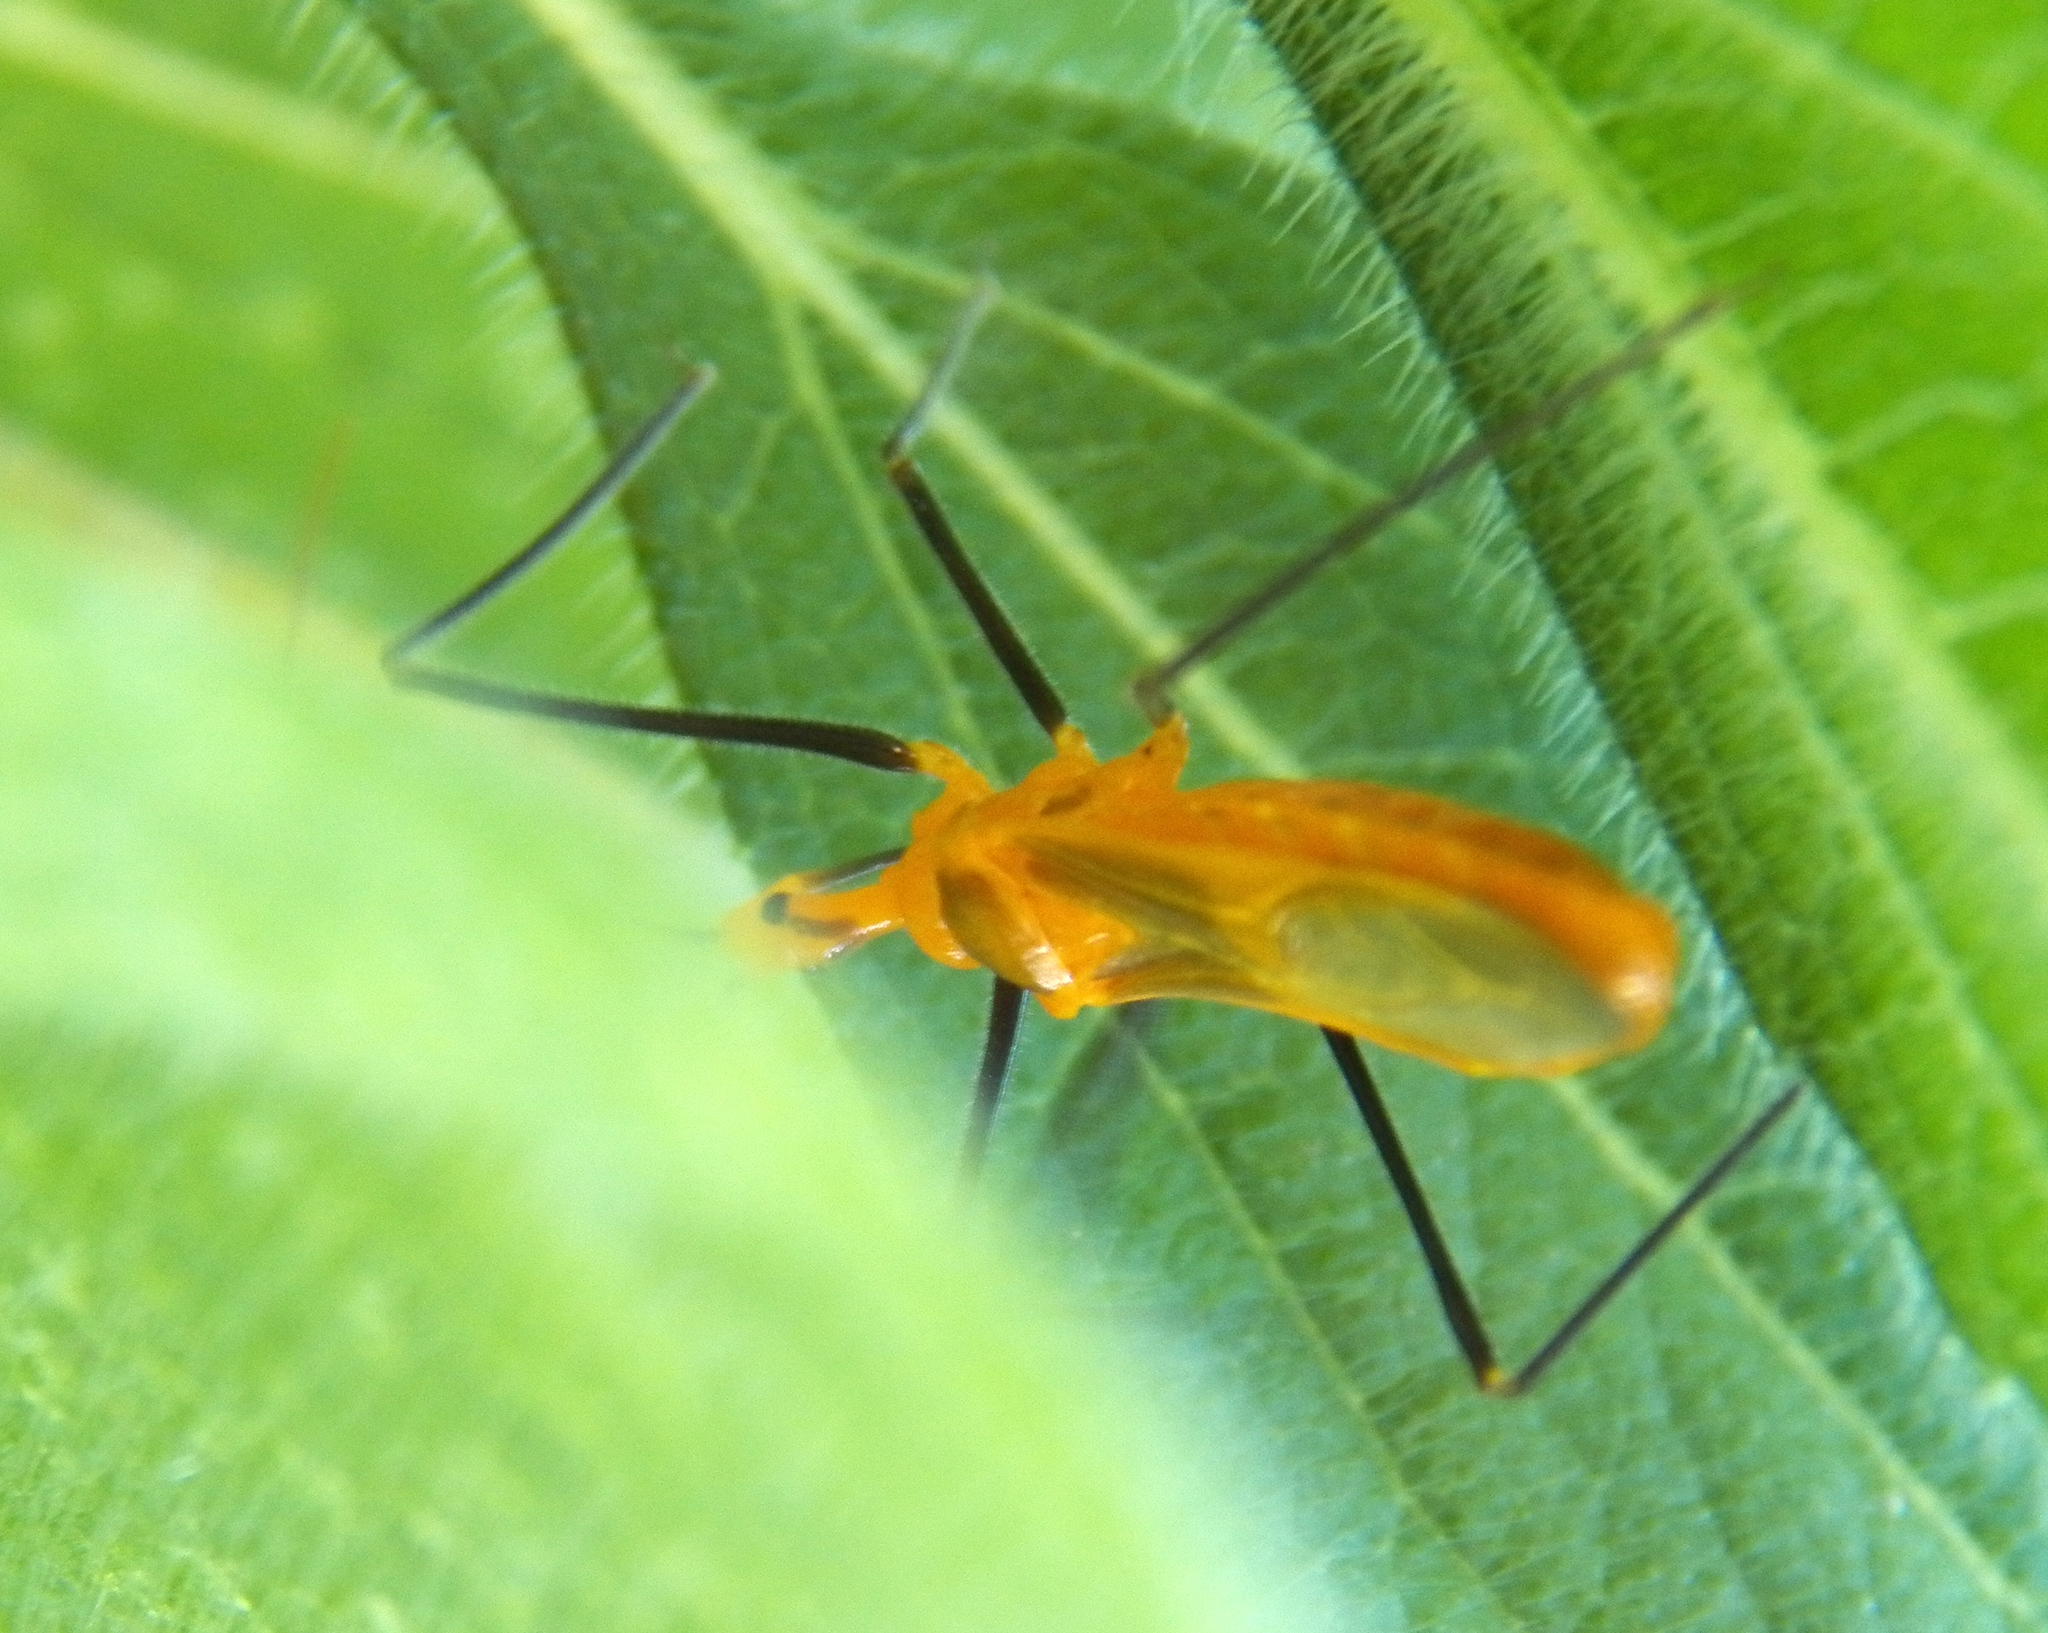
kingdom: Animalia
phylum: Arthropoda
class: Insecta
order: Hemiptera
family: Reduviidae
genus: Zelus
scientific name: Zelus longipes
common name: Milkweed assassin bug
